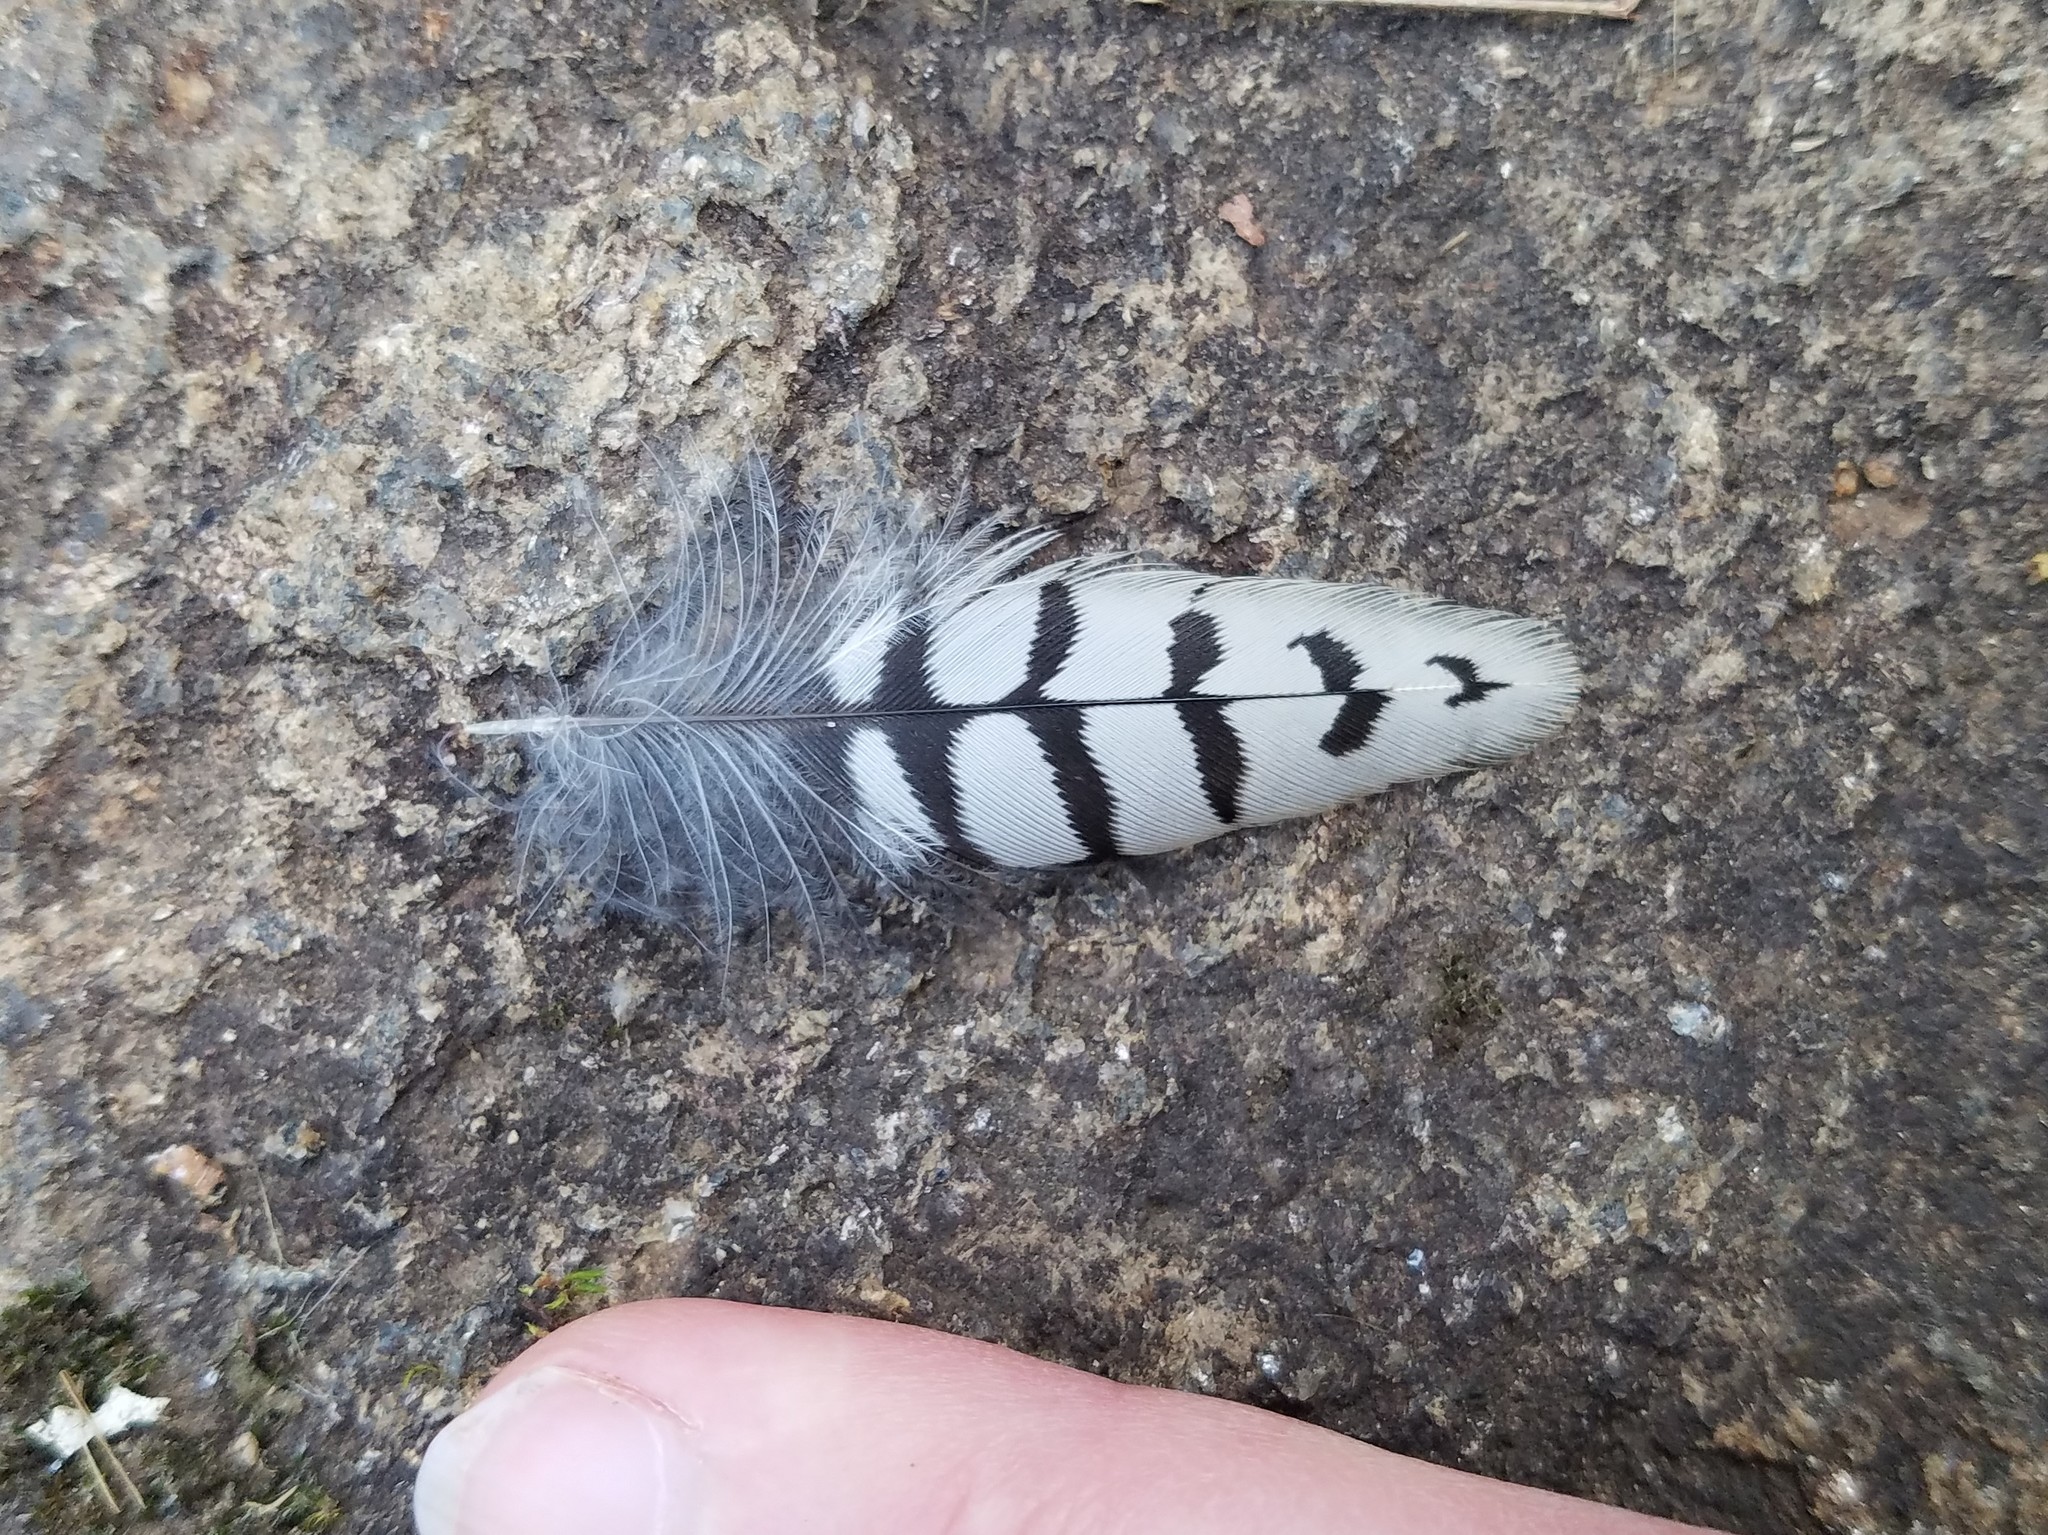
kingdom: Animalia
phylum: Chordata
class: Aves
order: Piciformes
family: Picidae
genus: Melanerpes
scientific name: Melanerpes carolinus
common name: Red-bellied woodpecker
